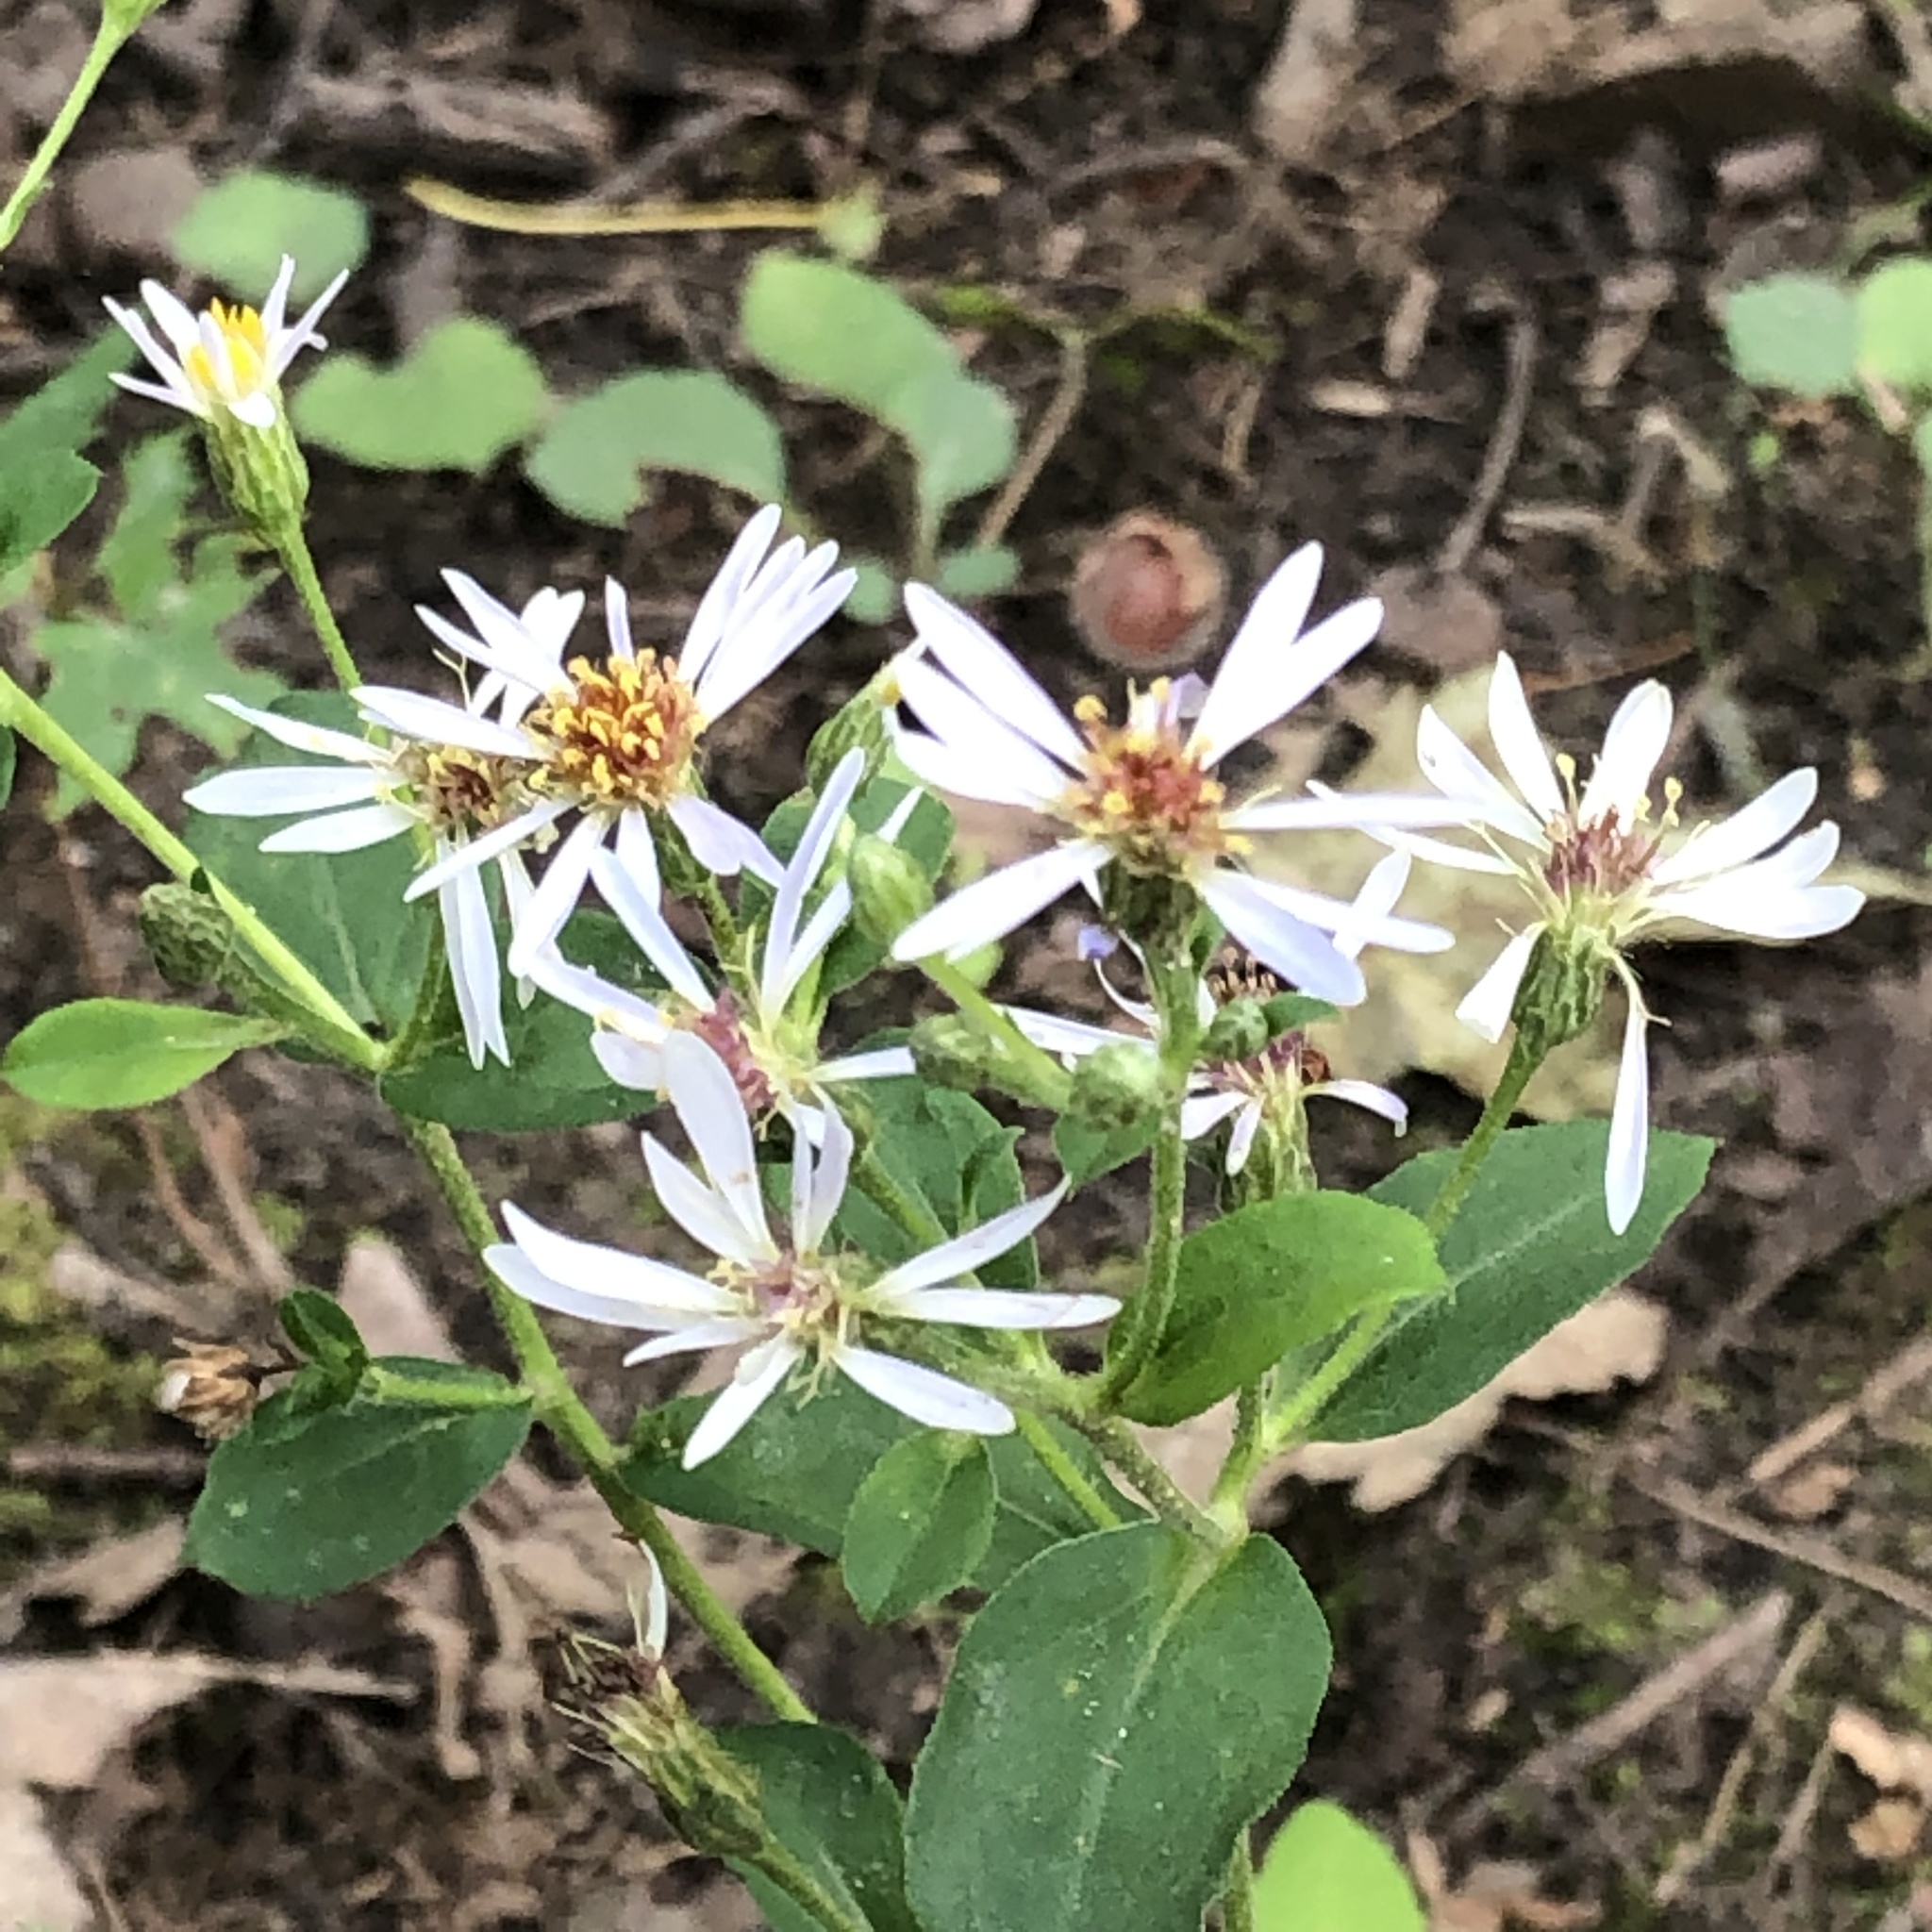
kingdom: Plantae
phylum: Tracheophyta
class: Magnoliopsida
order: Asterales
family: Asteraceae
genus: Eurybia
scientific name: Eurybia macrophylla
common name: Big-leaved aster
